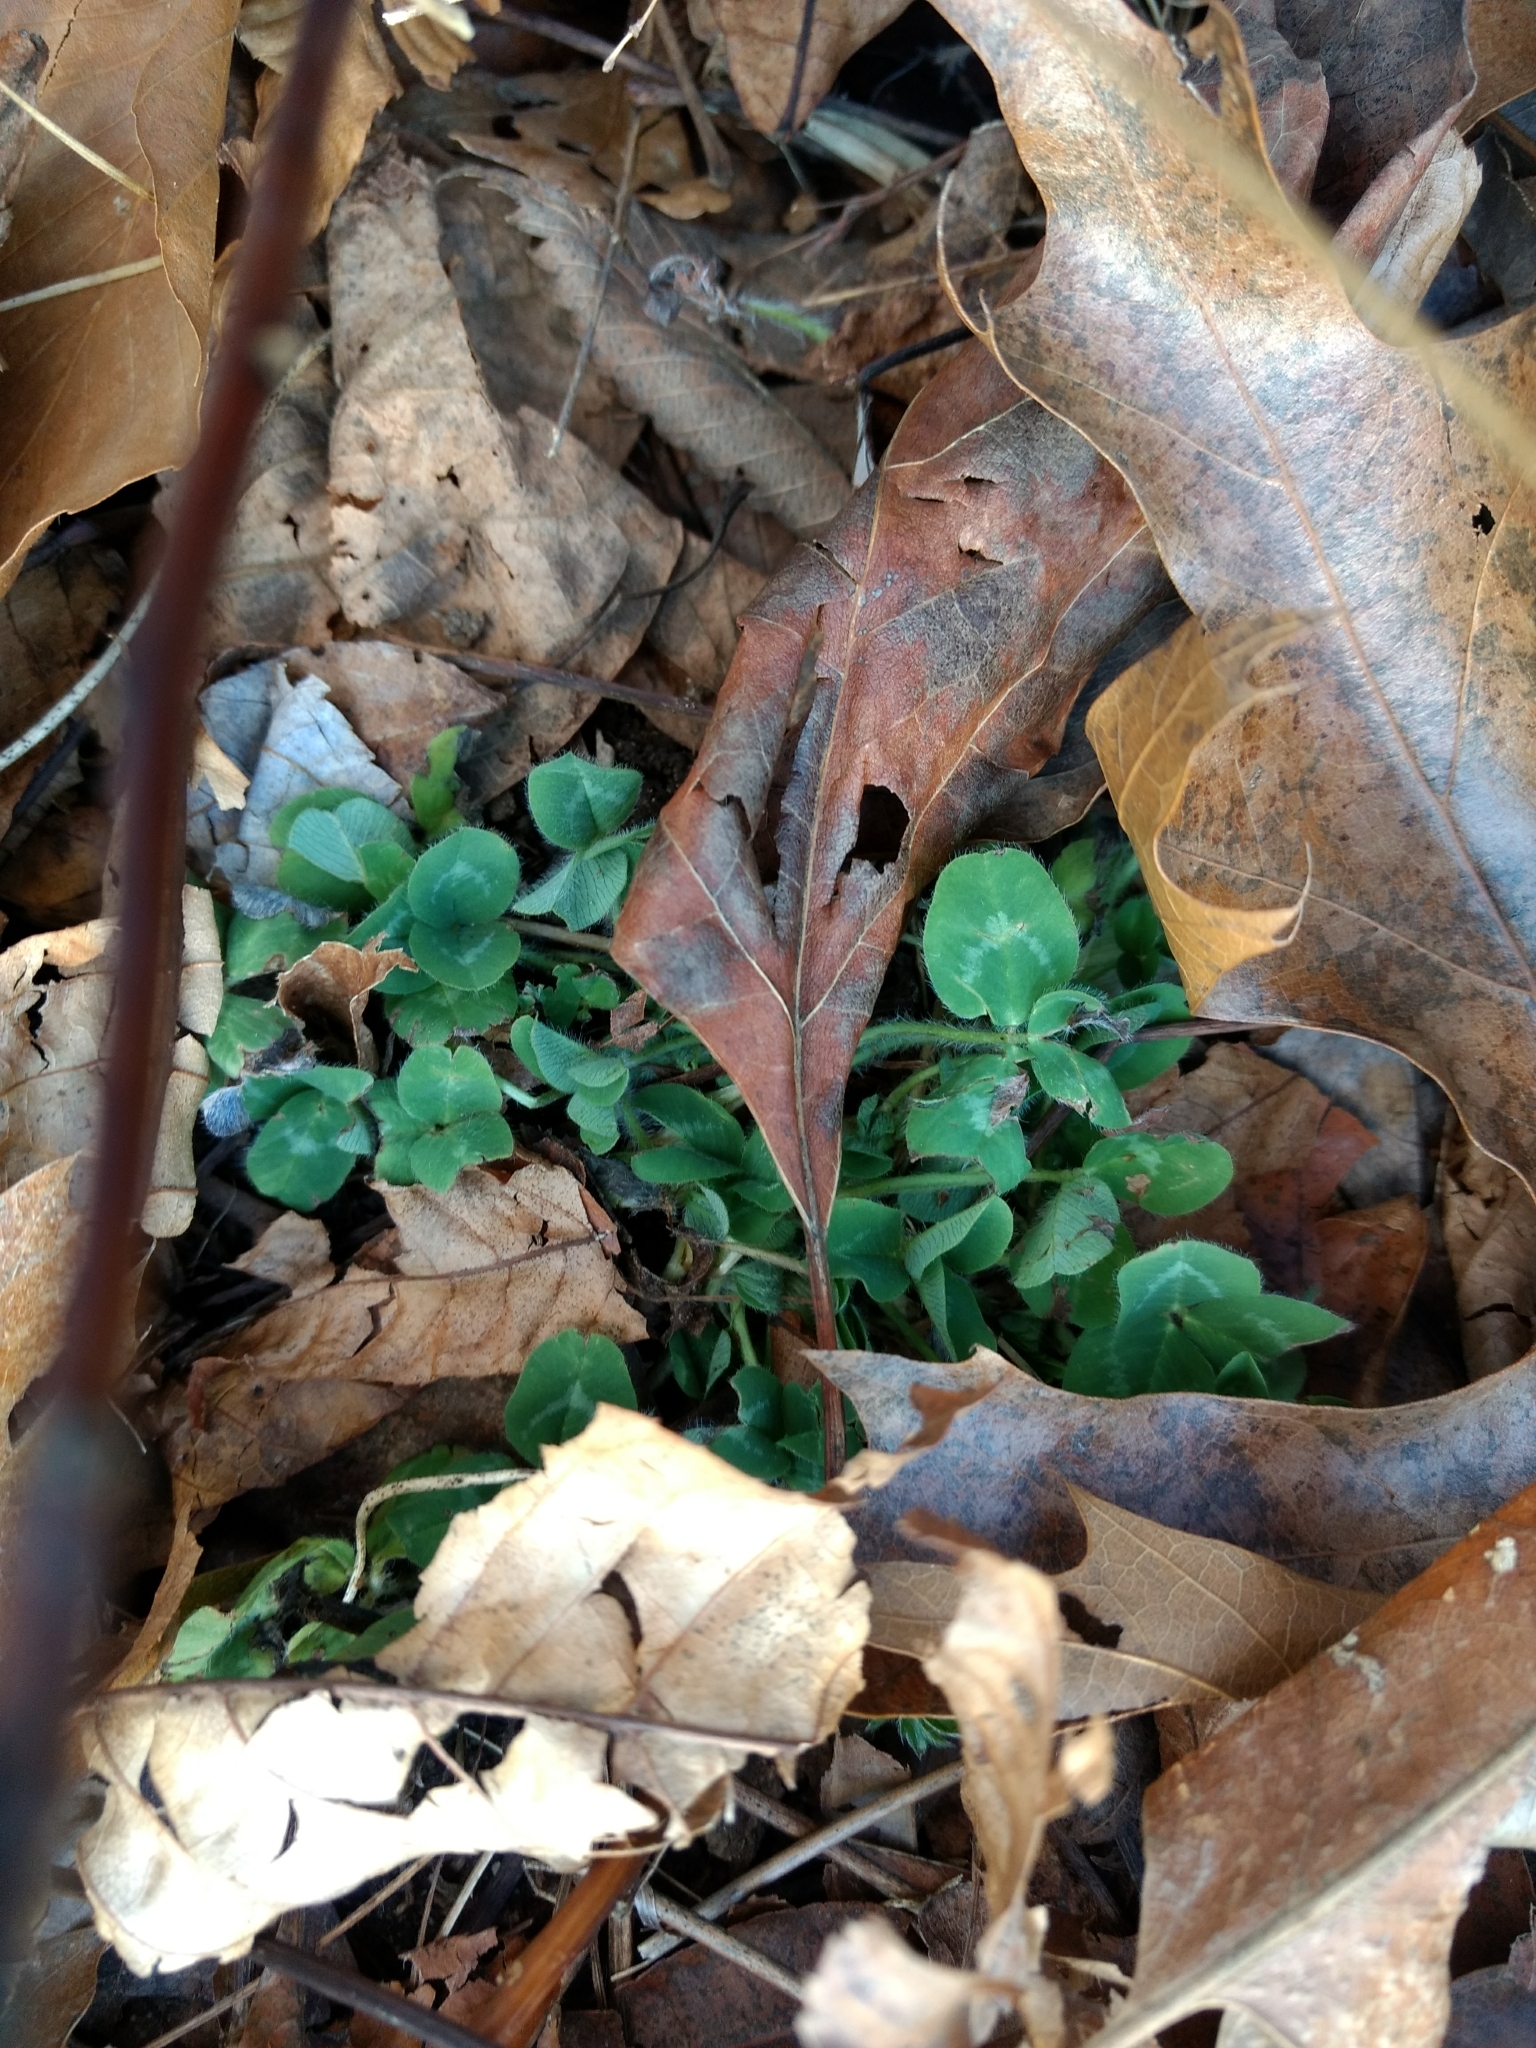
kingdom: Plantae
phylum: Tracheophyta
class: Magnoliopsida
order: Fabales
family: Fabaceae
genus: Trifolium
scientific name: Trifolium pratense
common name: Red clover
